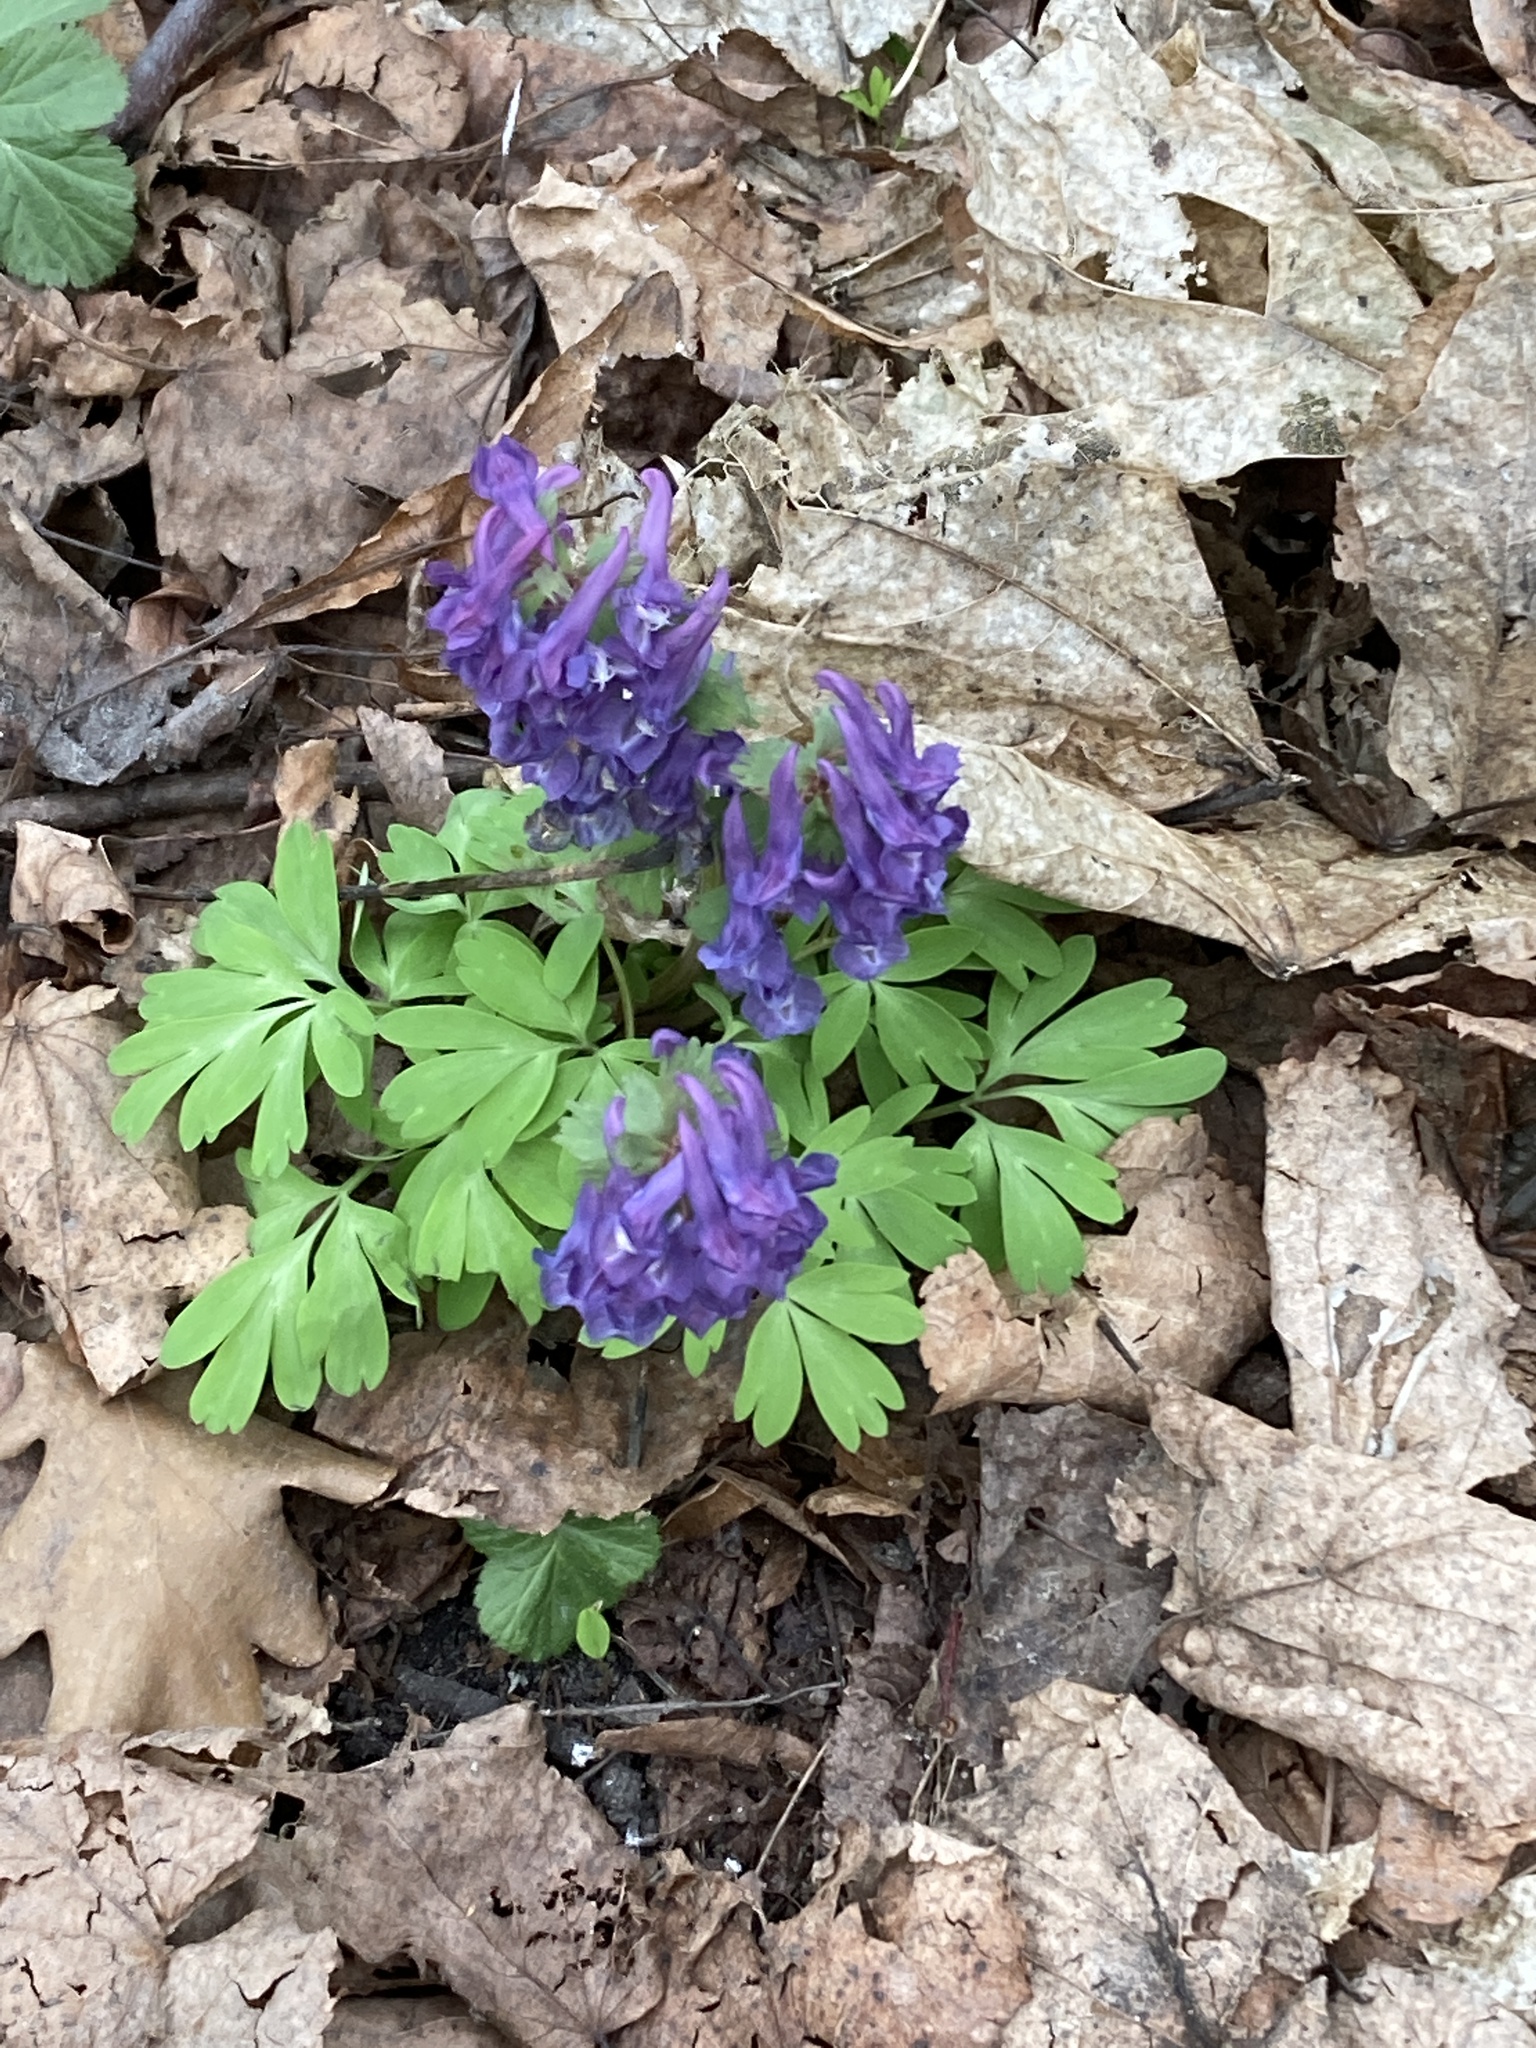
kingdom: Plantae
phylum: Tracheophyta
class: Magnoliopsida
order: Ranunculales
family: Papaveraceae
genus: Corydalis
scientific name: Corydalis solida
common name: Bird-in-a-bush
